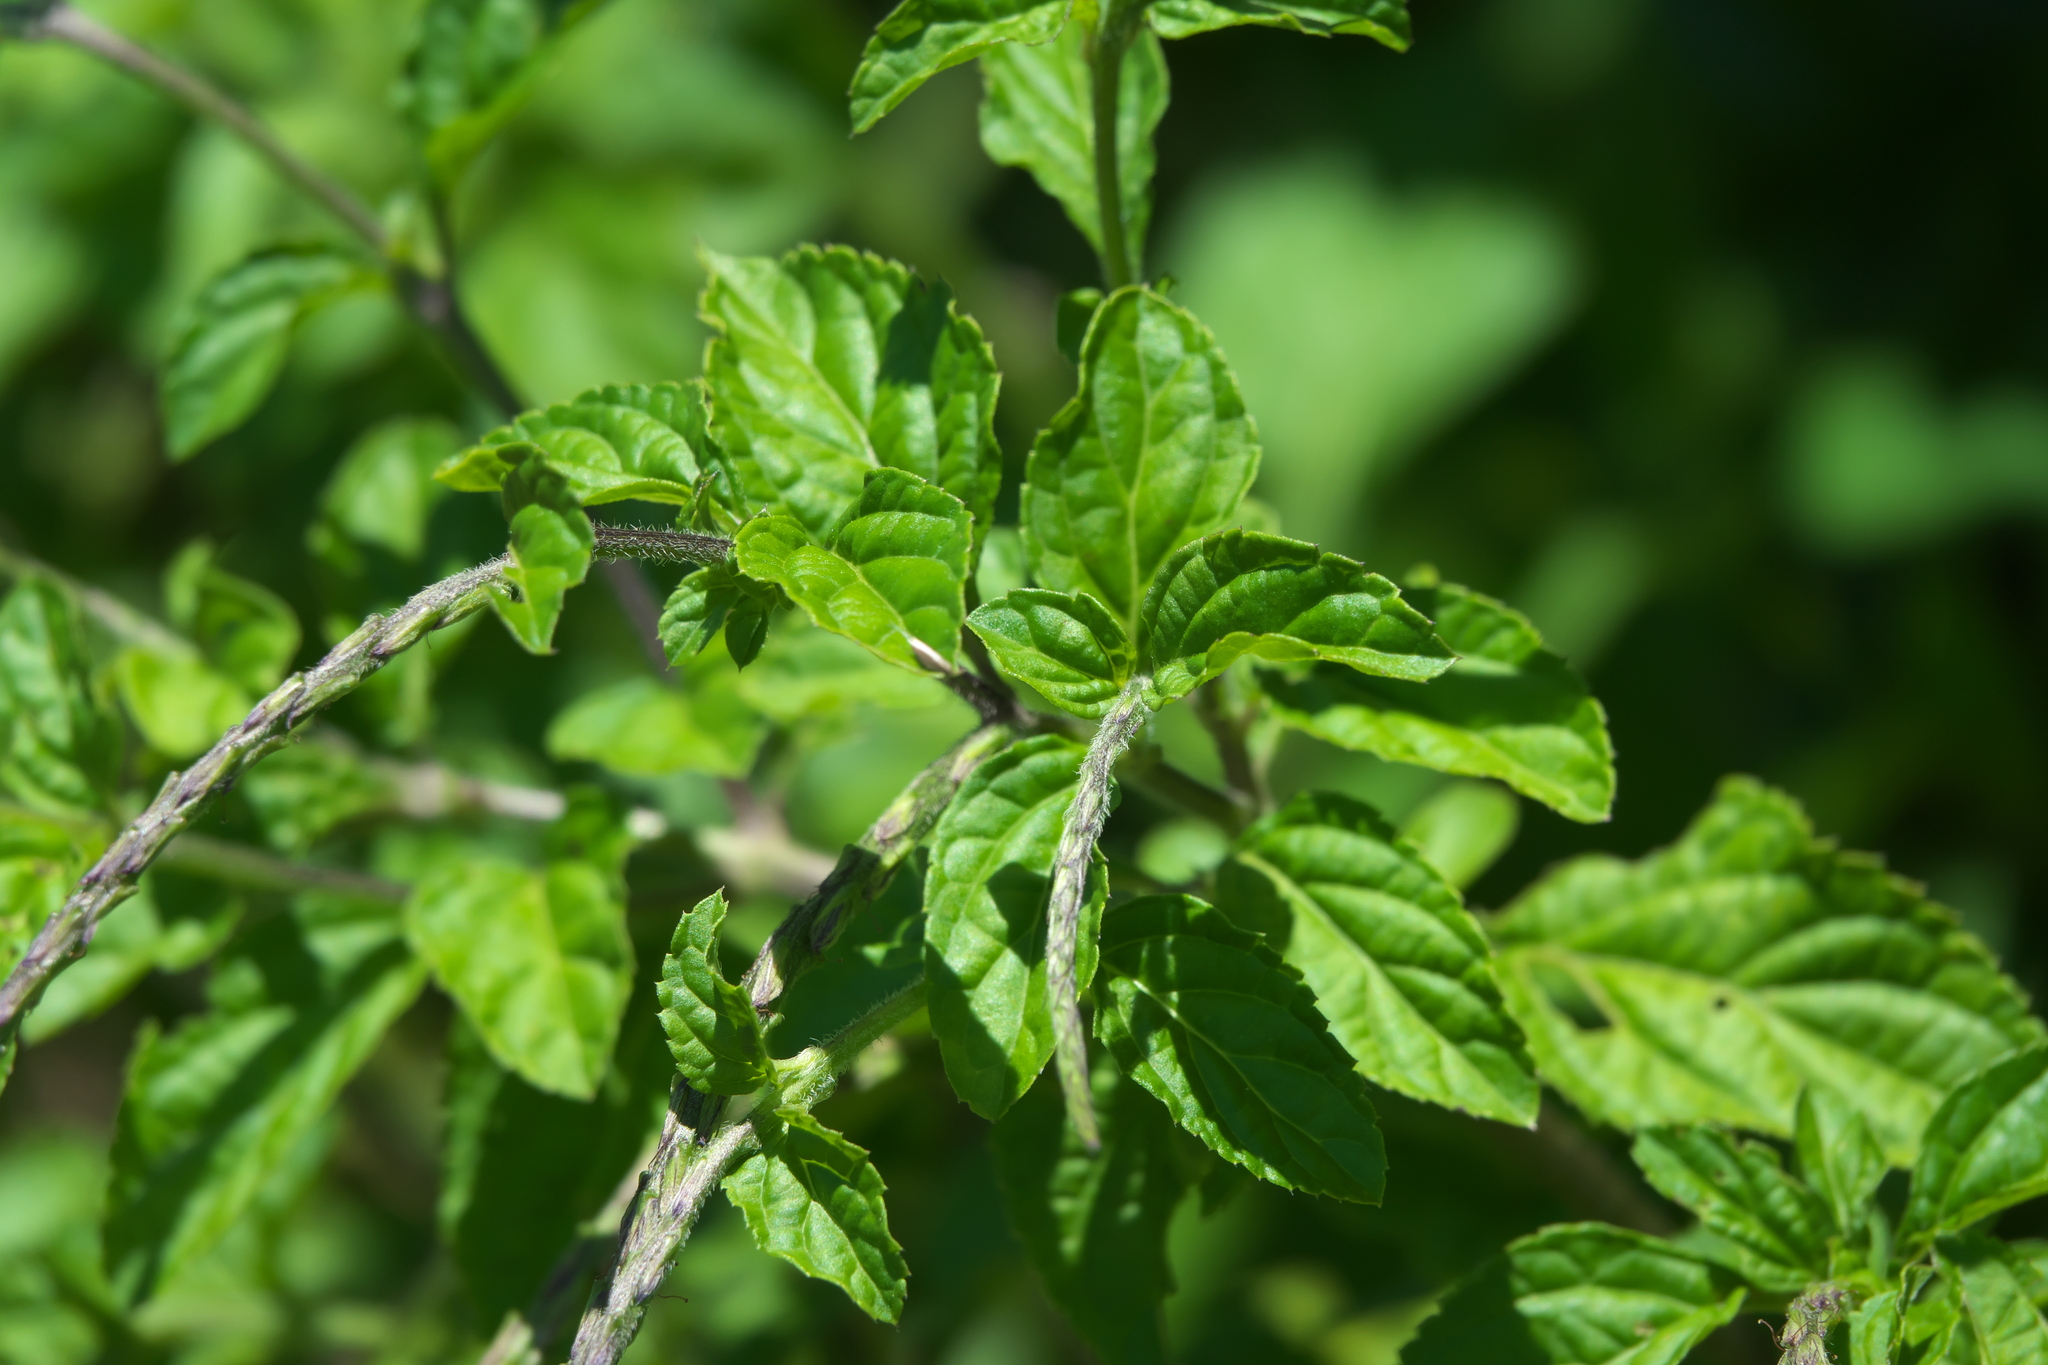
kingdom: Plantae
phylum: Tracheophyta
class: Magnoliopsida
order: Lamiales
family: Verbenaceae
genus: Stachytarpheta
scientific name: Stachytarpheta cayennensis
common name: Cayenne porterweed
